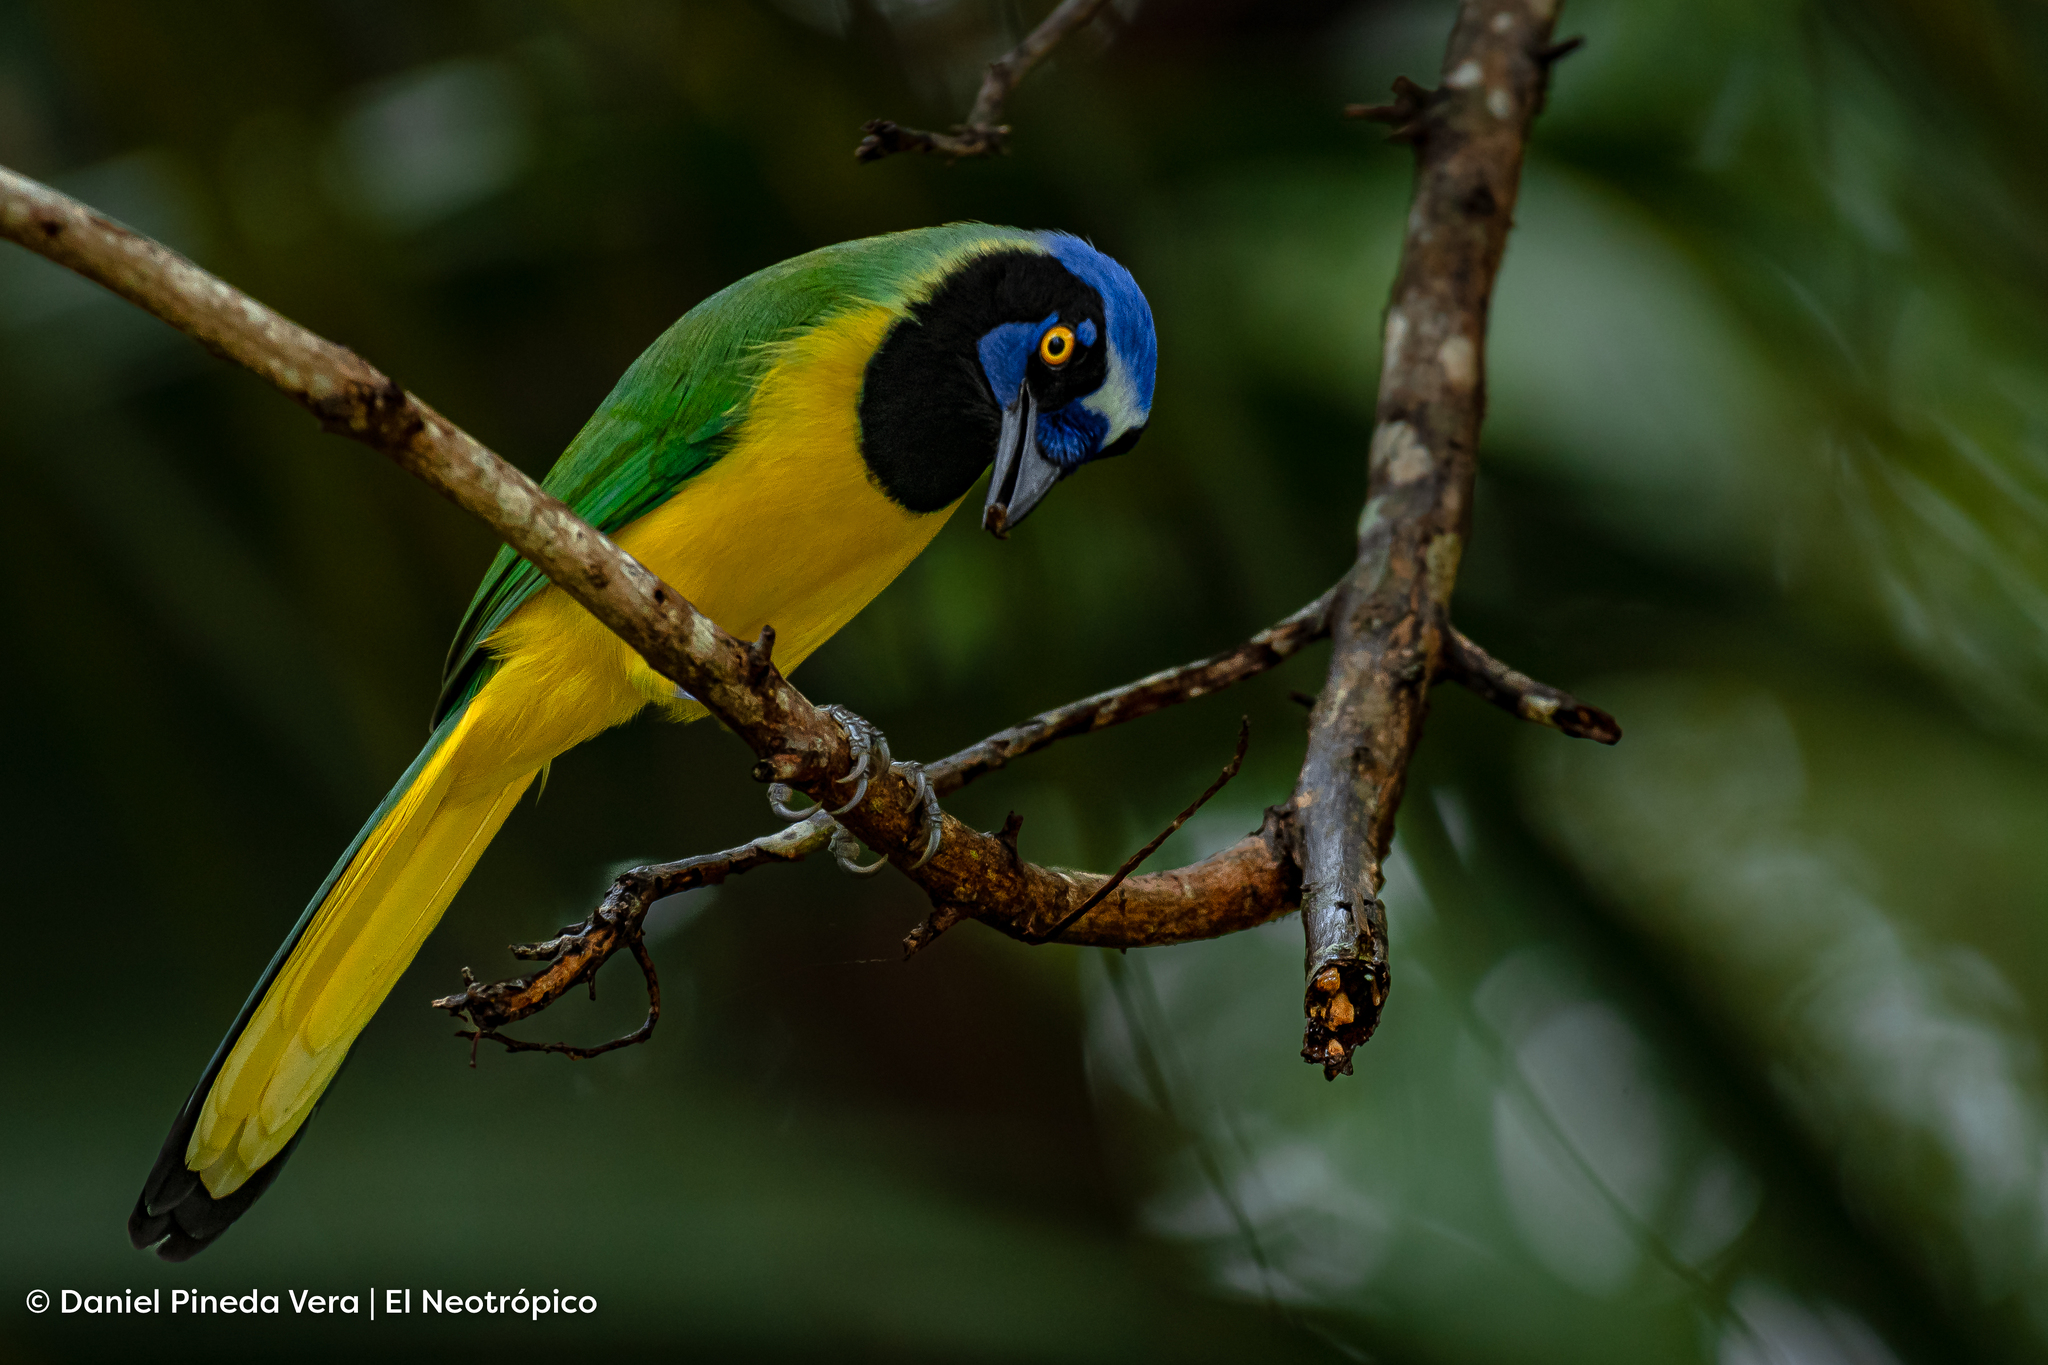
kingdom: Animalia
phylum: Chordata
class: Aves
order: Passeriformes
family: Corvidae
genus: Cyanocorax
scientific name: Cyanocorax yncas
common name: Green jay
